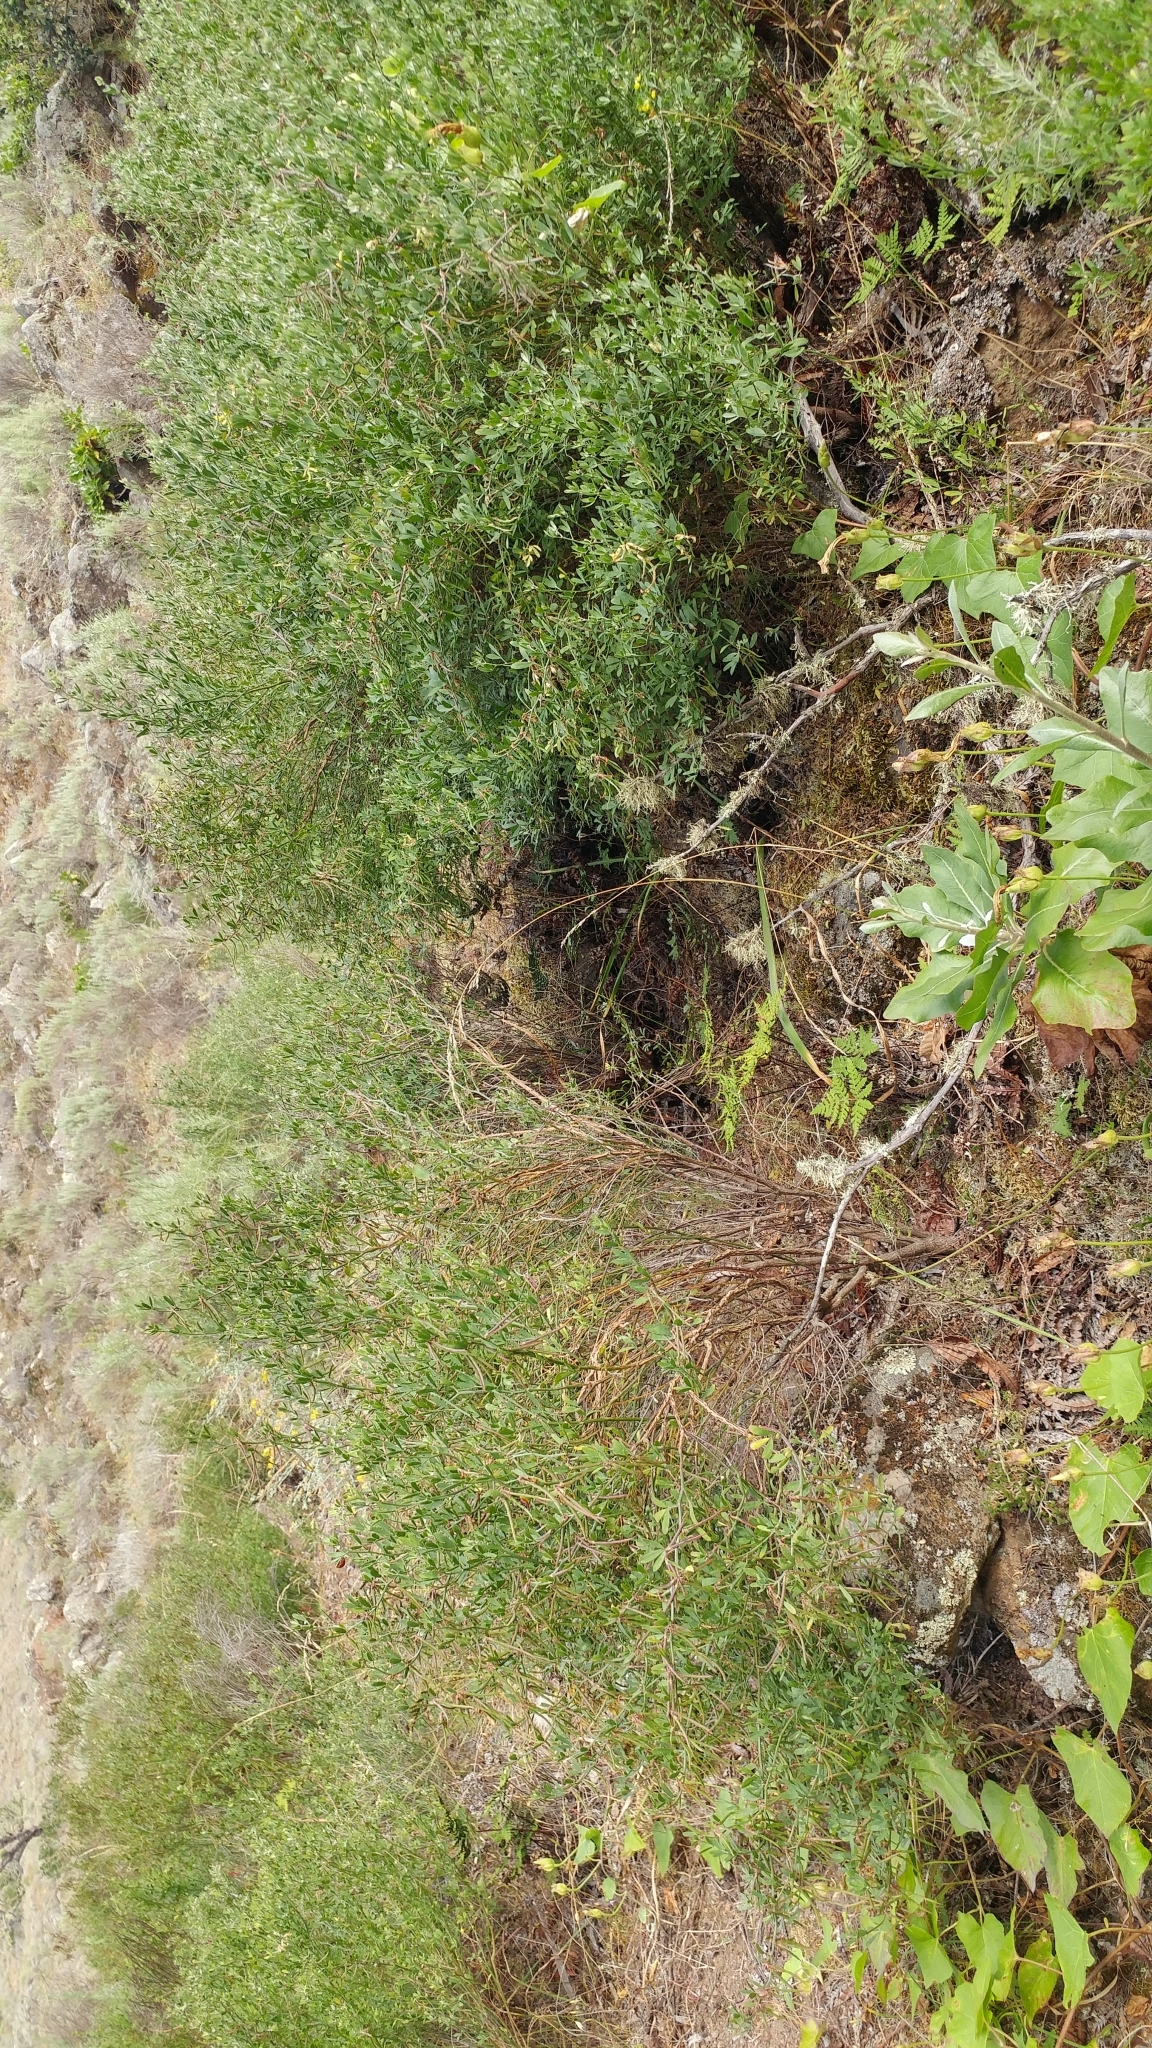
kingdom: Plantae
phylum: Tracheophyta
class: Magnoliopsida
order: Fabales
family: Fabaceae
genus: Acmispon
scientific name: Acmispon dendroideus
